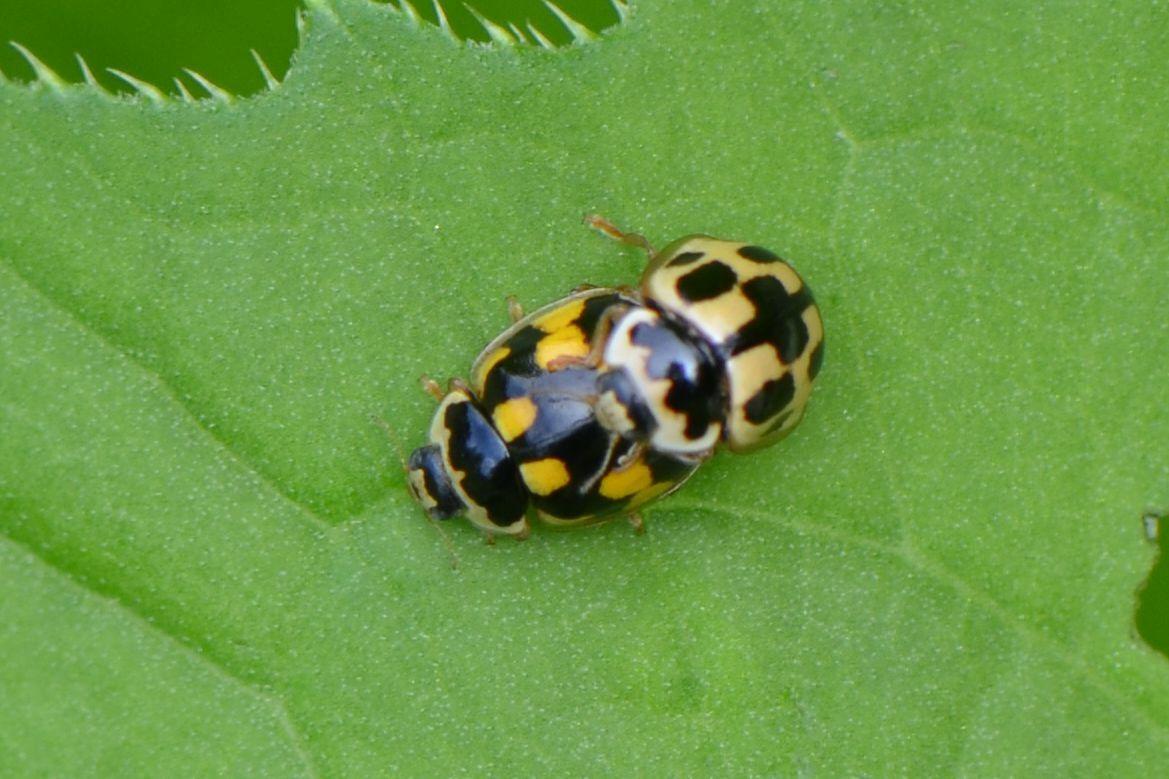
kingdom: Animalia
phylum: Arthropoda
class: Insecta
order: Coleoptera
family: Coccinellidae
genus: Propylaea
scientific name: Propylaea quatuordecimpunctata
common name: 14-spotted ladybird beetle
